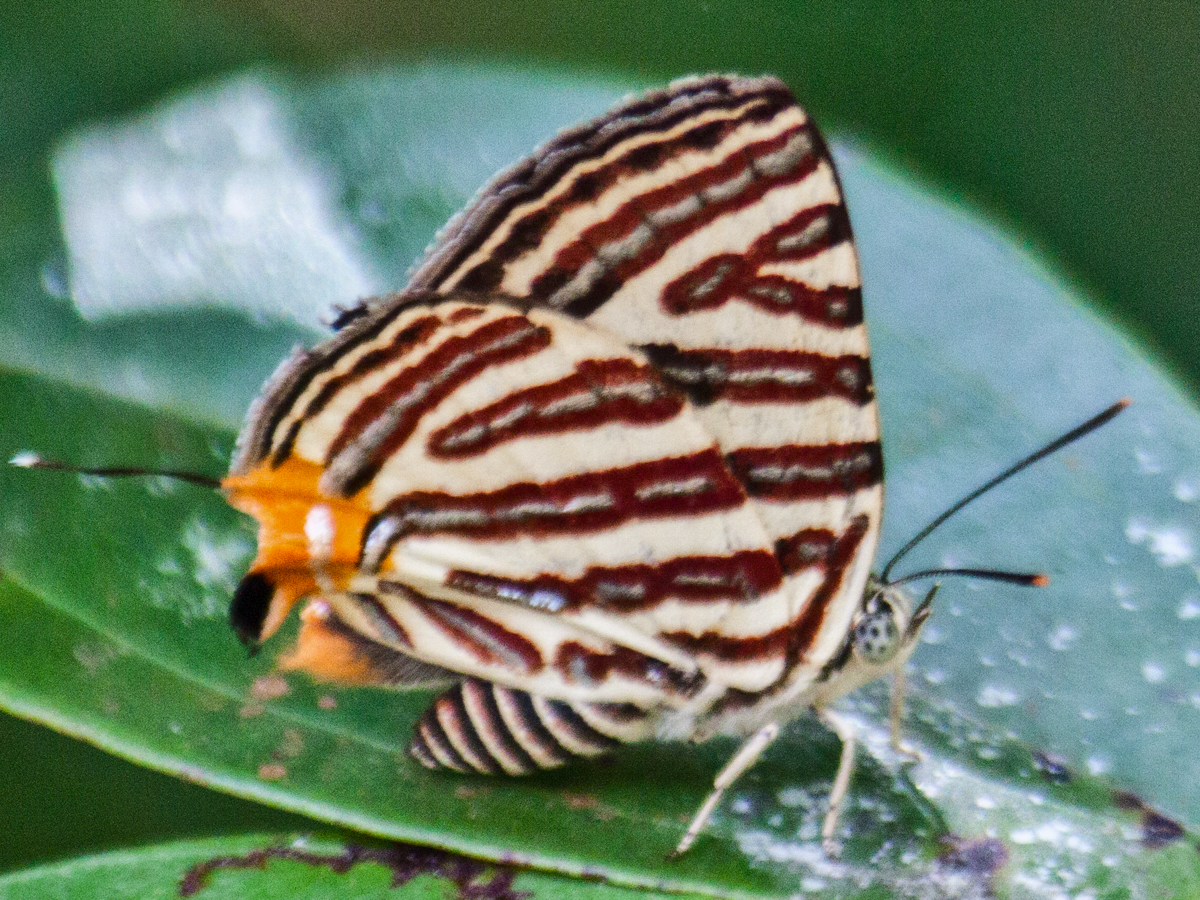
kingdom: Animalia
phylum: Arthropoda
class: Insecta
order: Lepidoptera
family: Lycaenidae
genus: Cigaritis
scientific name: Cigaritis lohita
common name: Long-banded silverline
